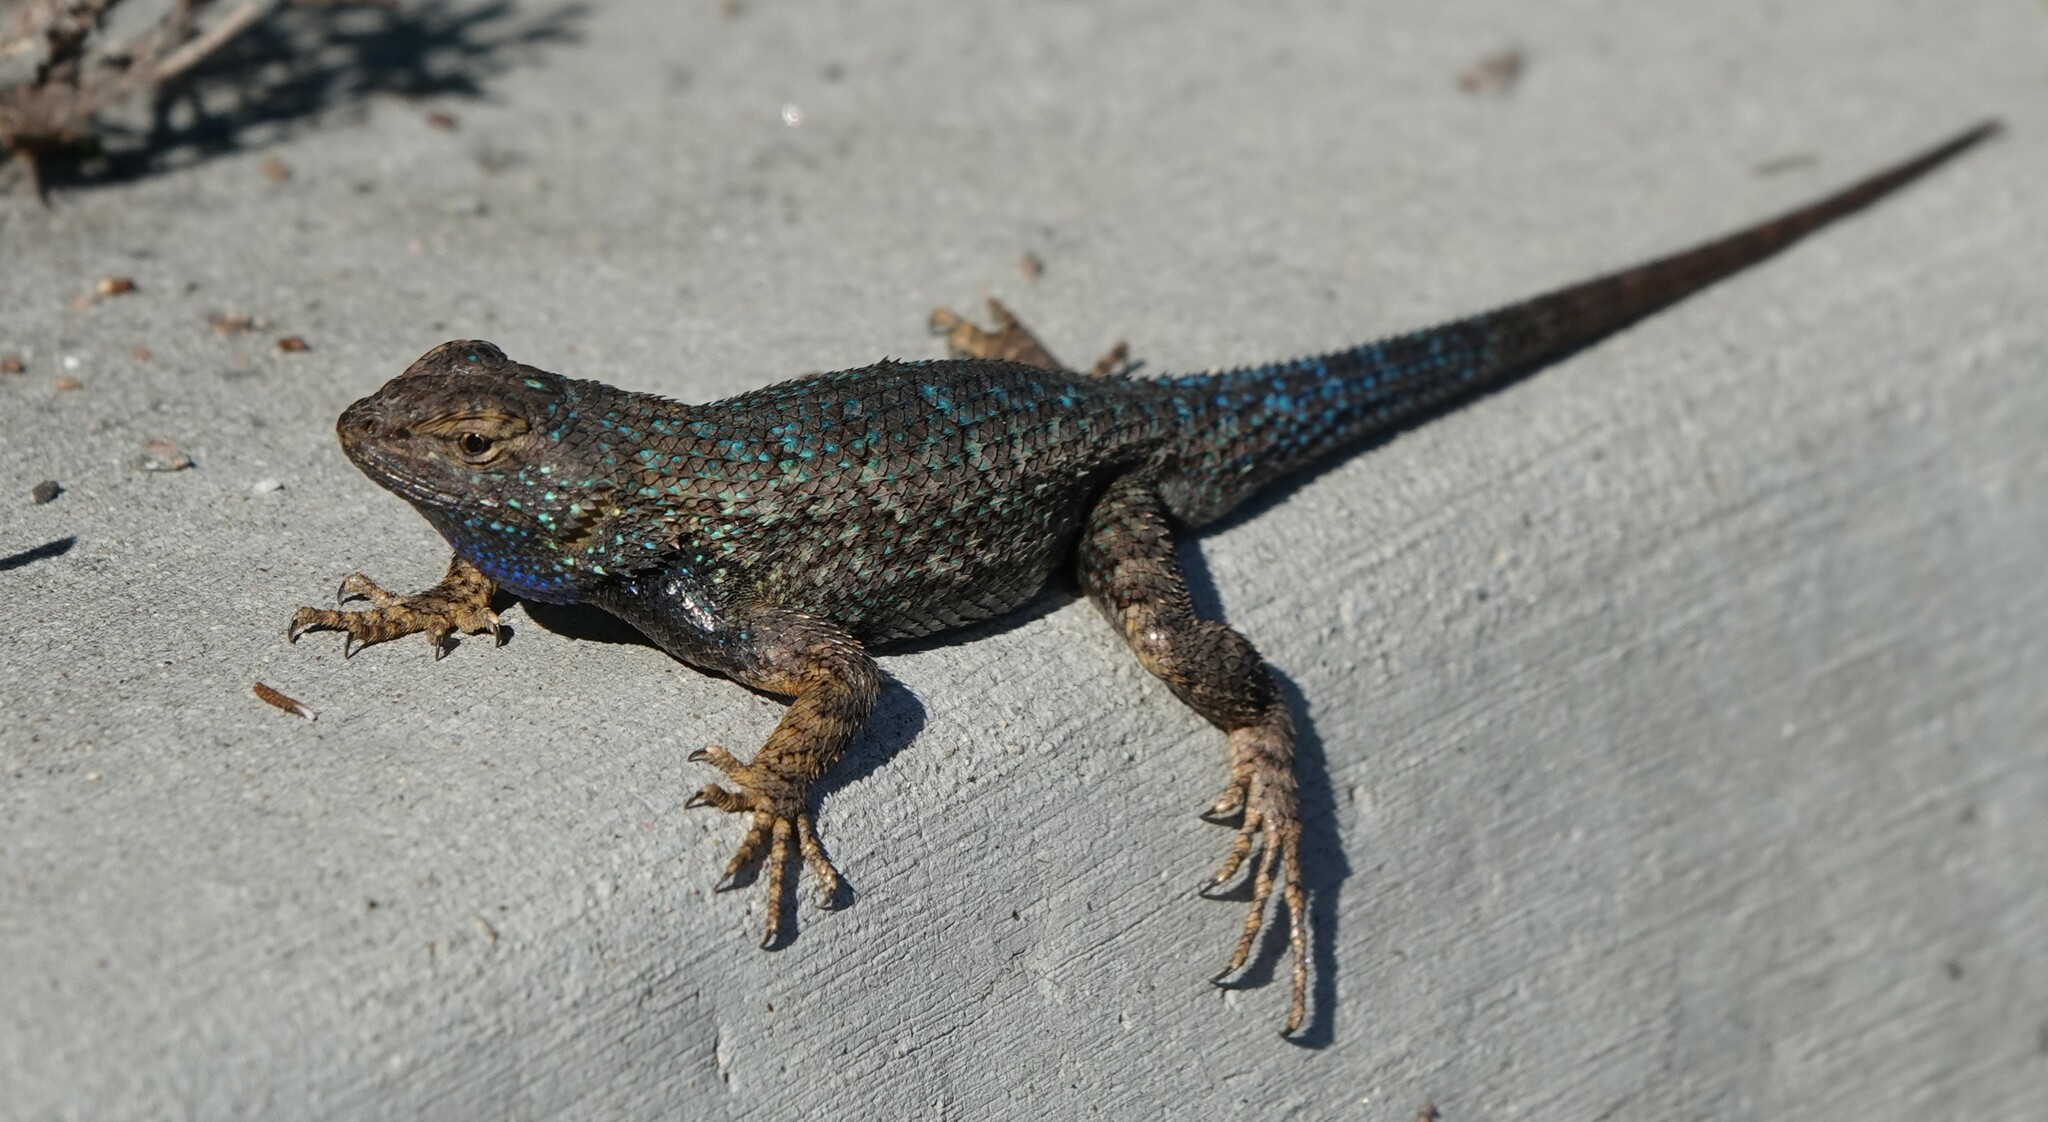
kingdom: Animalia
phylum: Chordata
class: Squamata
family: Phrynosomatidae
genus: Sceloporus
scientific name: Sceloporus occidentalis
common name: Western fence lizard
